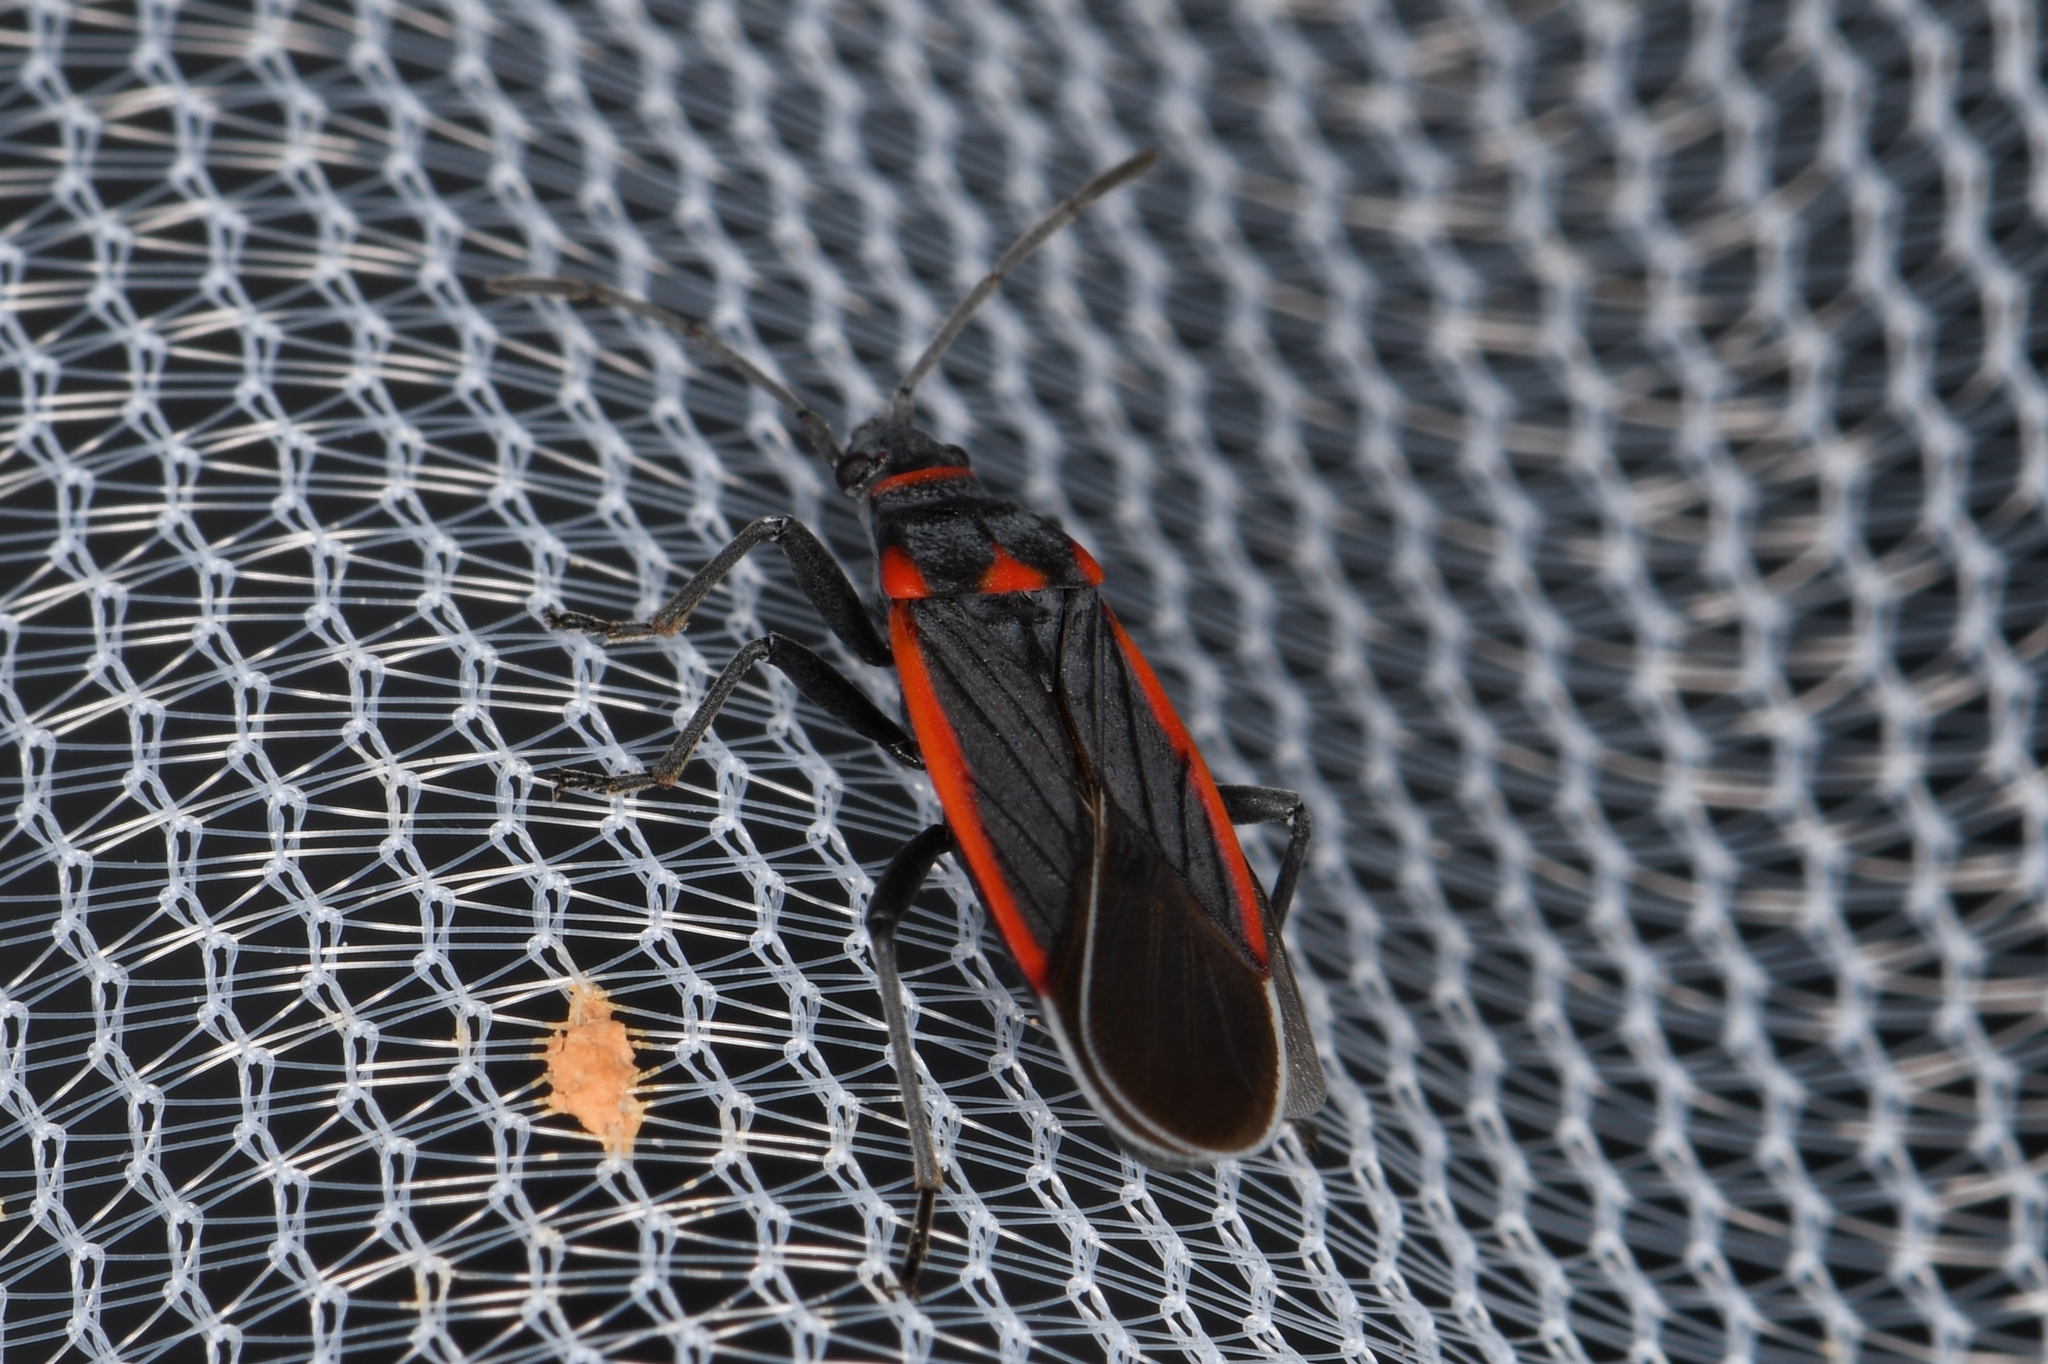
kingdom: Animalia
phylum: Arthropoda
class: Insecta
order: Hemiptera
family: Lygaeidae
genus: Melacoryphus
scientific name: Melacoryphus lateralis
